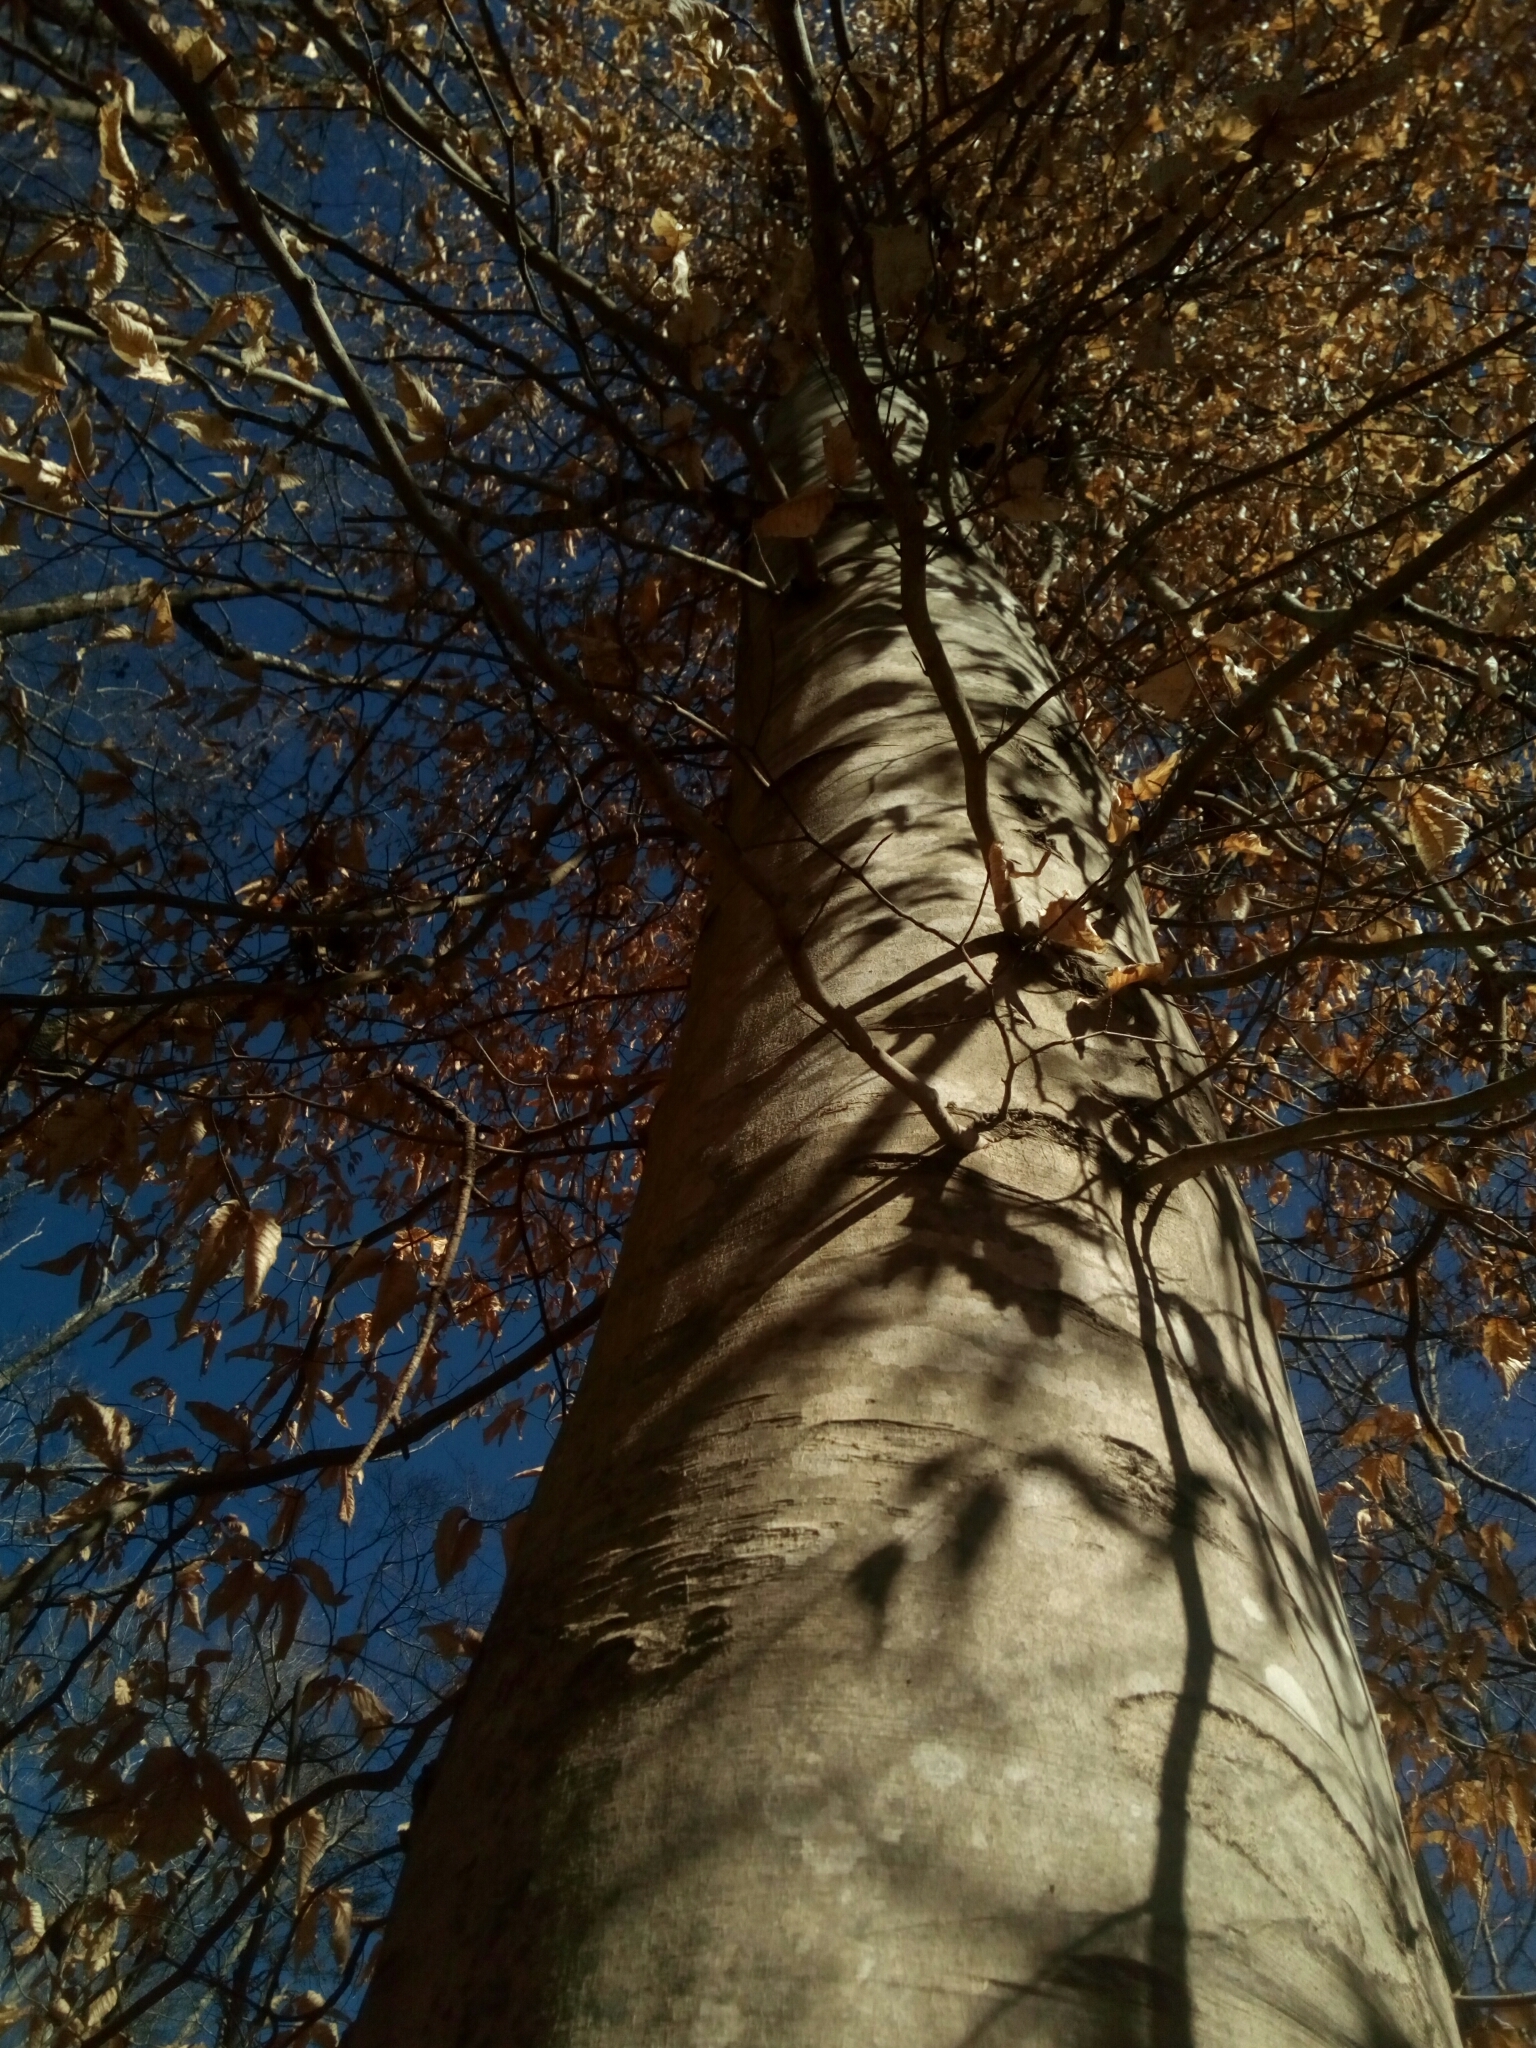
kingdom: Plantae
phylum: Tracheophyta
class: Magnoliopsida
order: Fagales
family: Fagaceae
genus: Fagus
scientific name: Fagus grandifolia
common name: American beech
